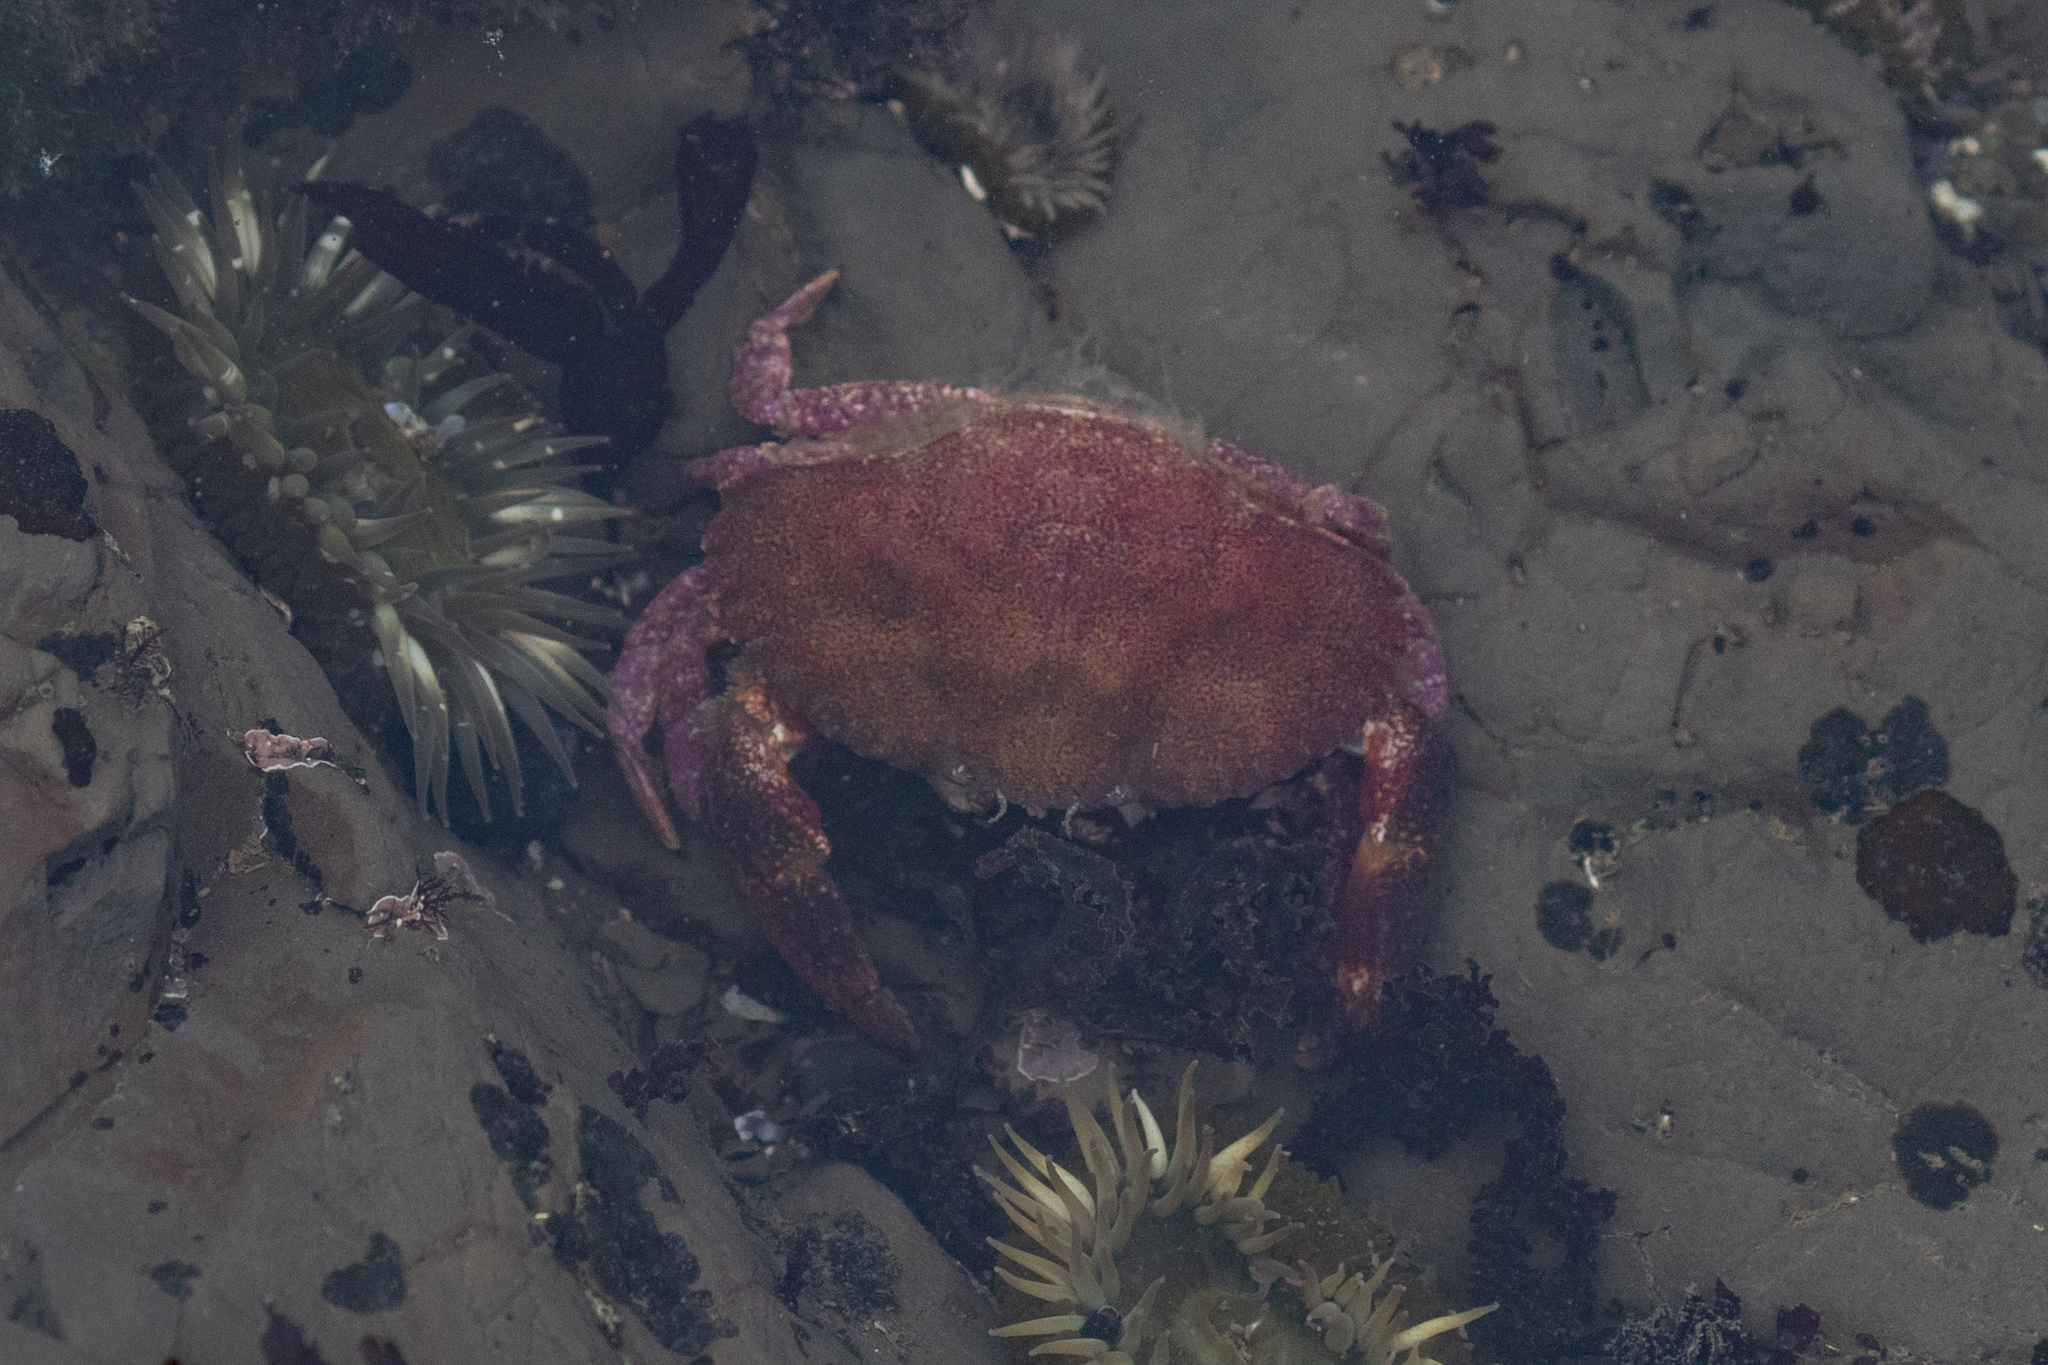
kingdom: Animalia
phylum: Arthropoda
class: Malacostraca
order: Decapoda
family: Cancridae
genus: Cancer
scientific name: Cancer productus
